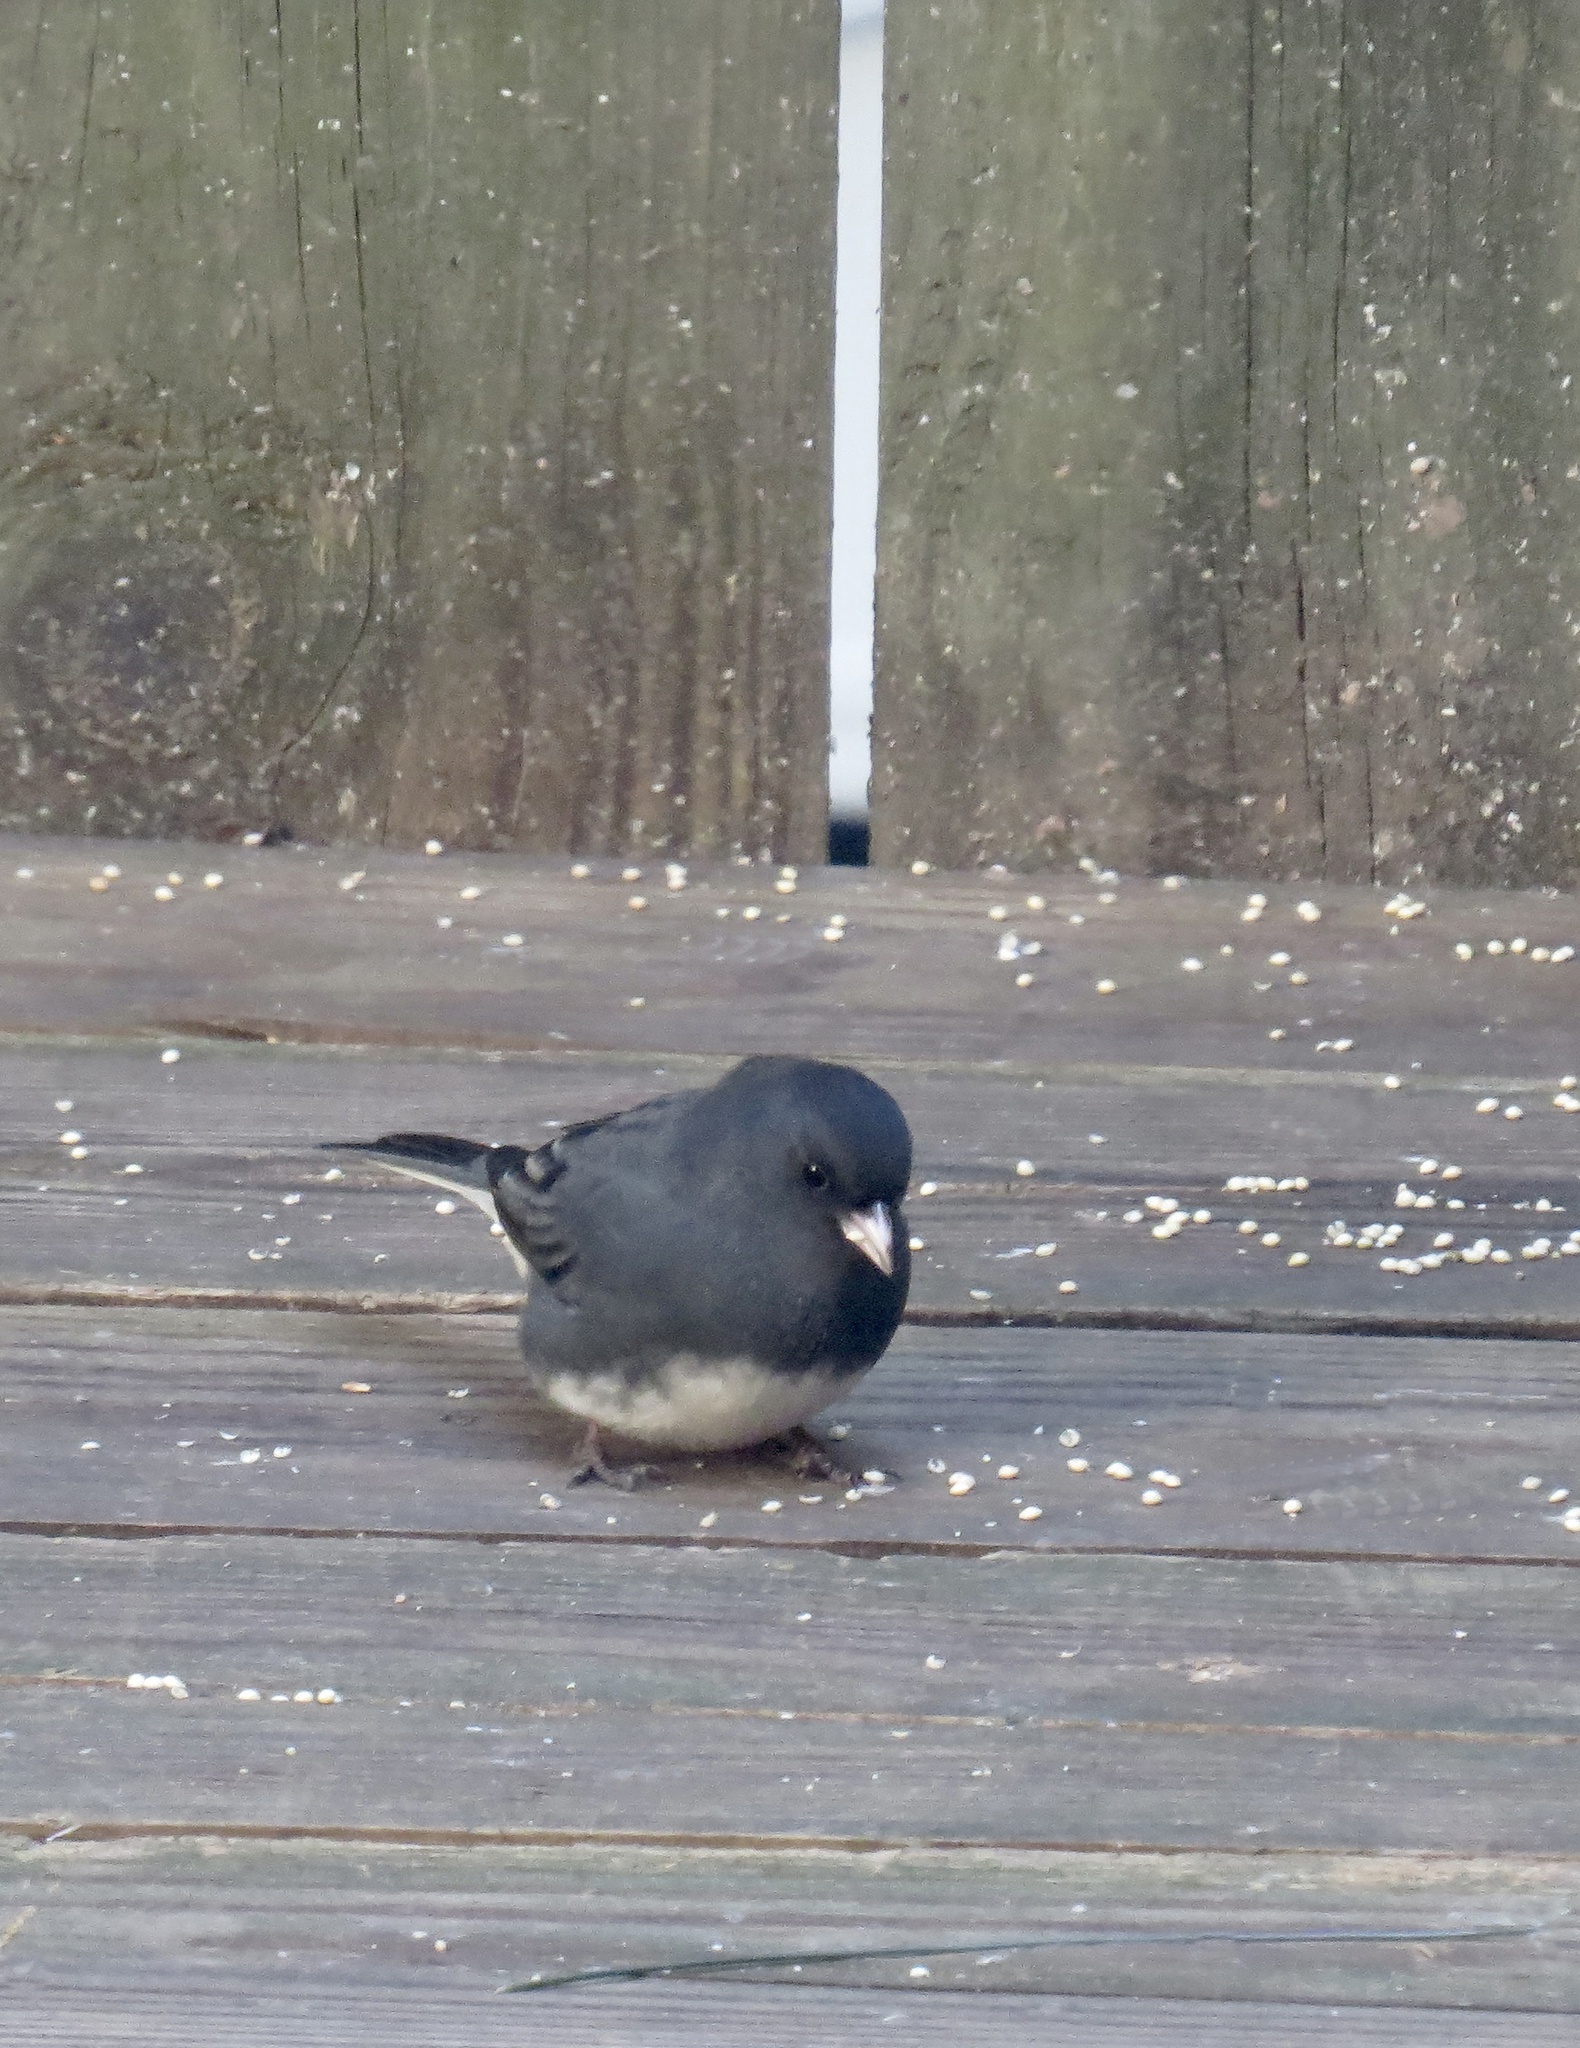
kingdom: Animalia
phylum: Chordata
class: Aves
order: Passeriformes
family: Passerellidae
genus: Junco
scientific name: Junco hyemalis
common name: Dark-eyed junco
